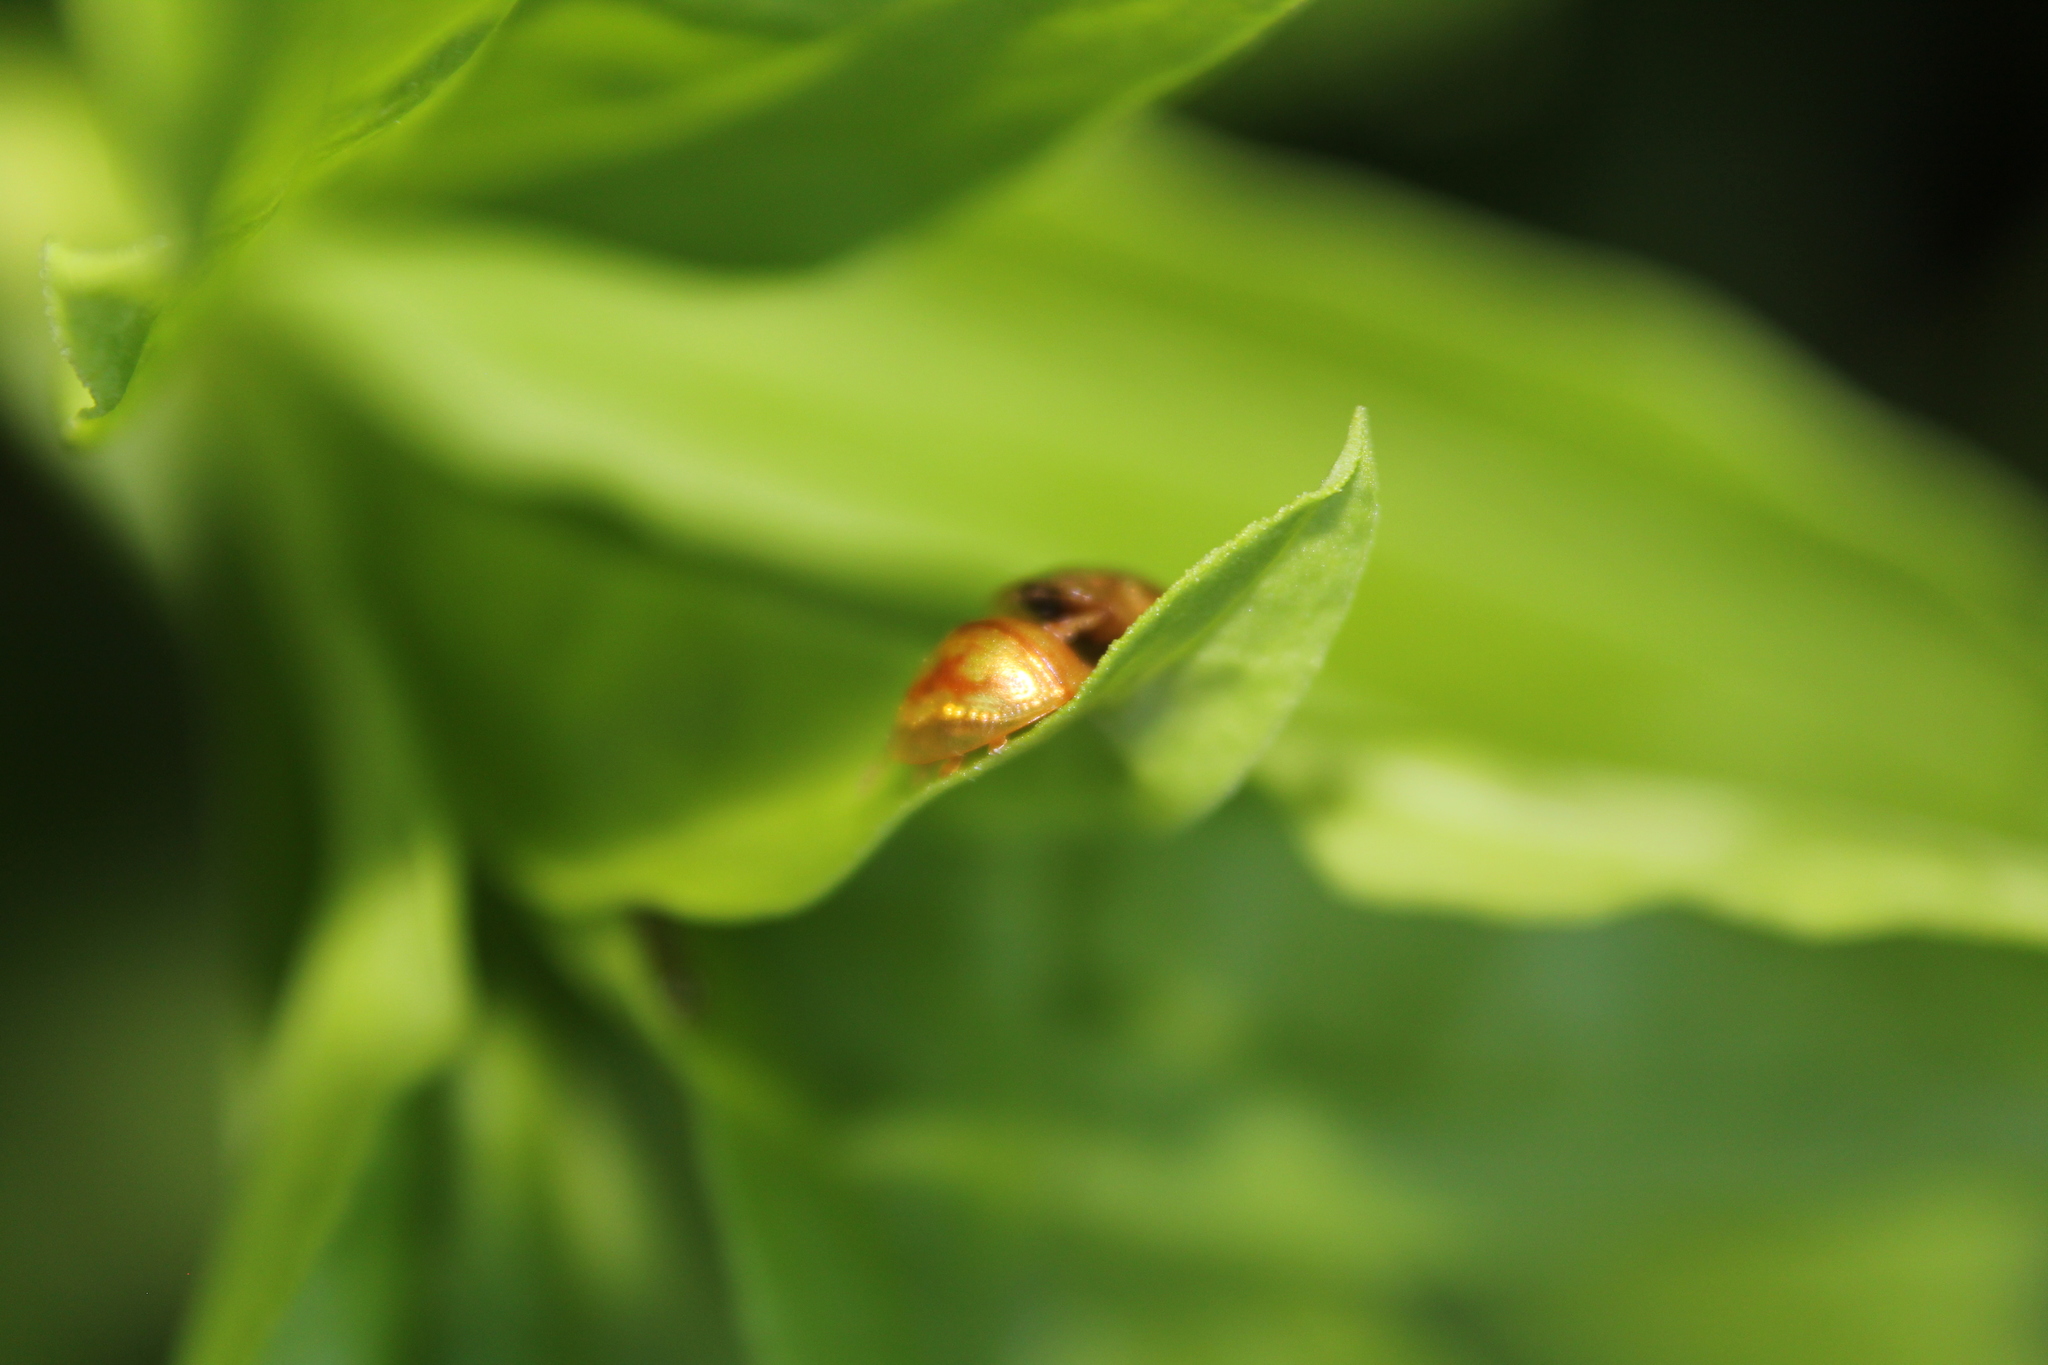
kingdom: Animalia
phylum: Arthropoda
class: Insecta
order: Coleoptera
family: Chrysomelidae
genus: Cassida
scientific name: Cassida subreticulata
